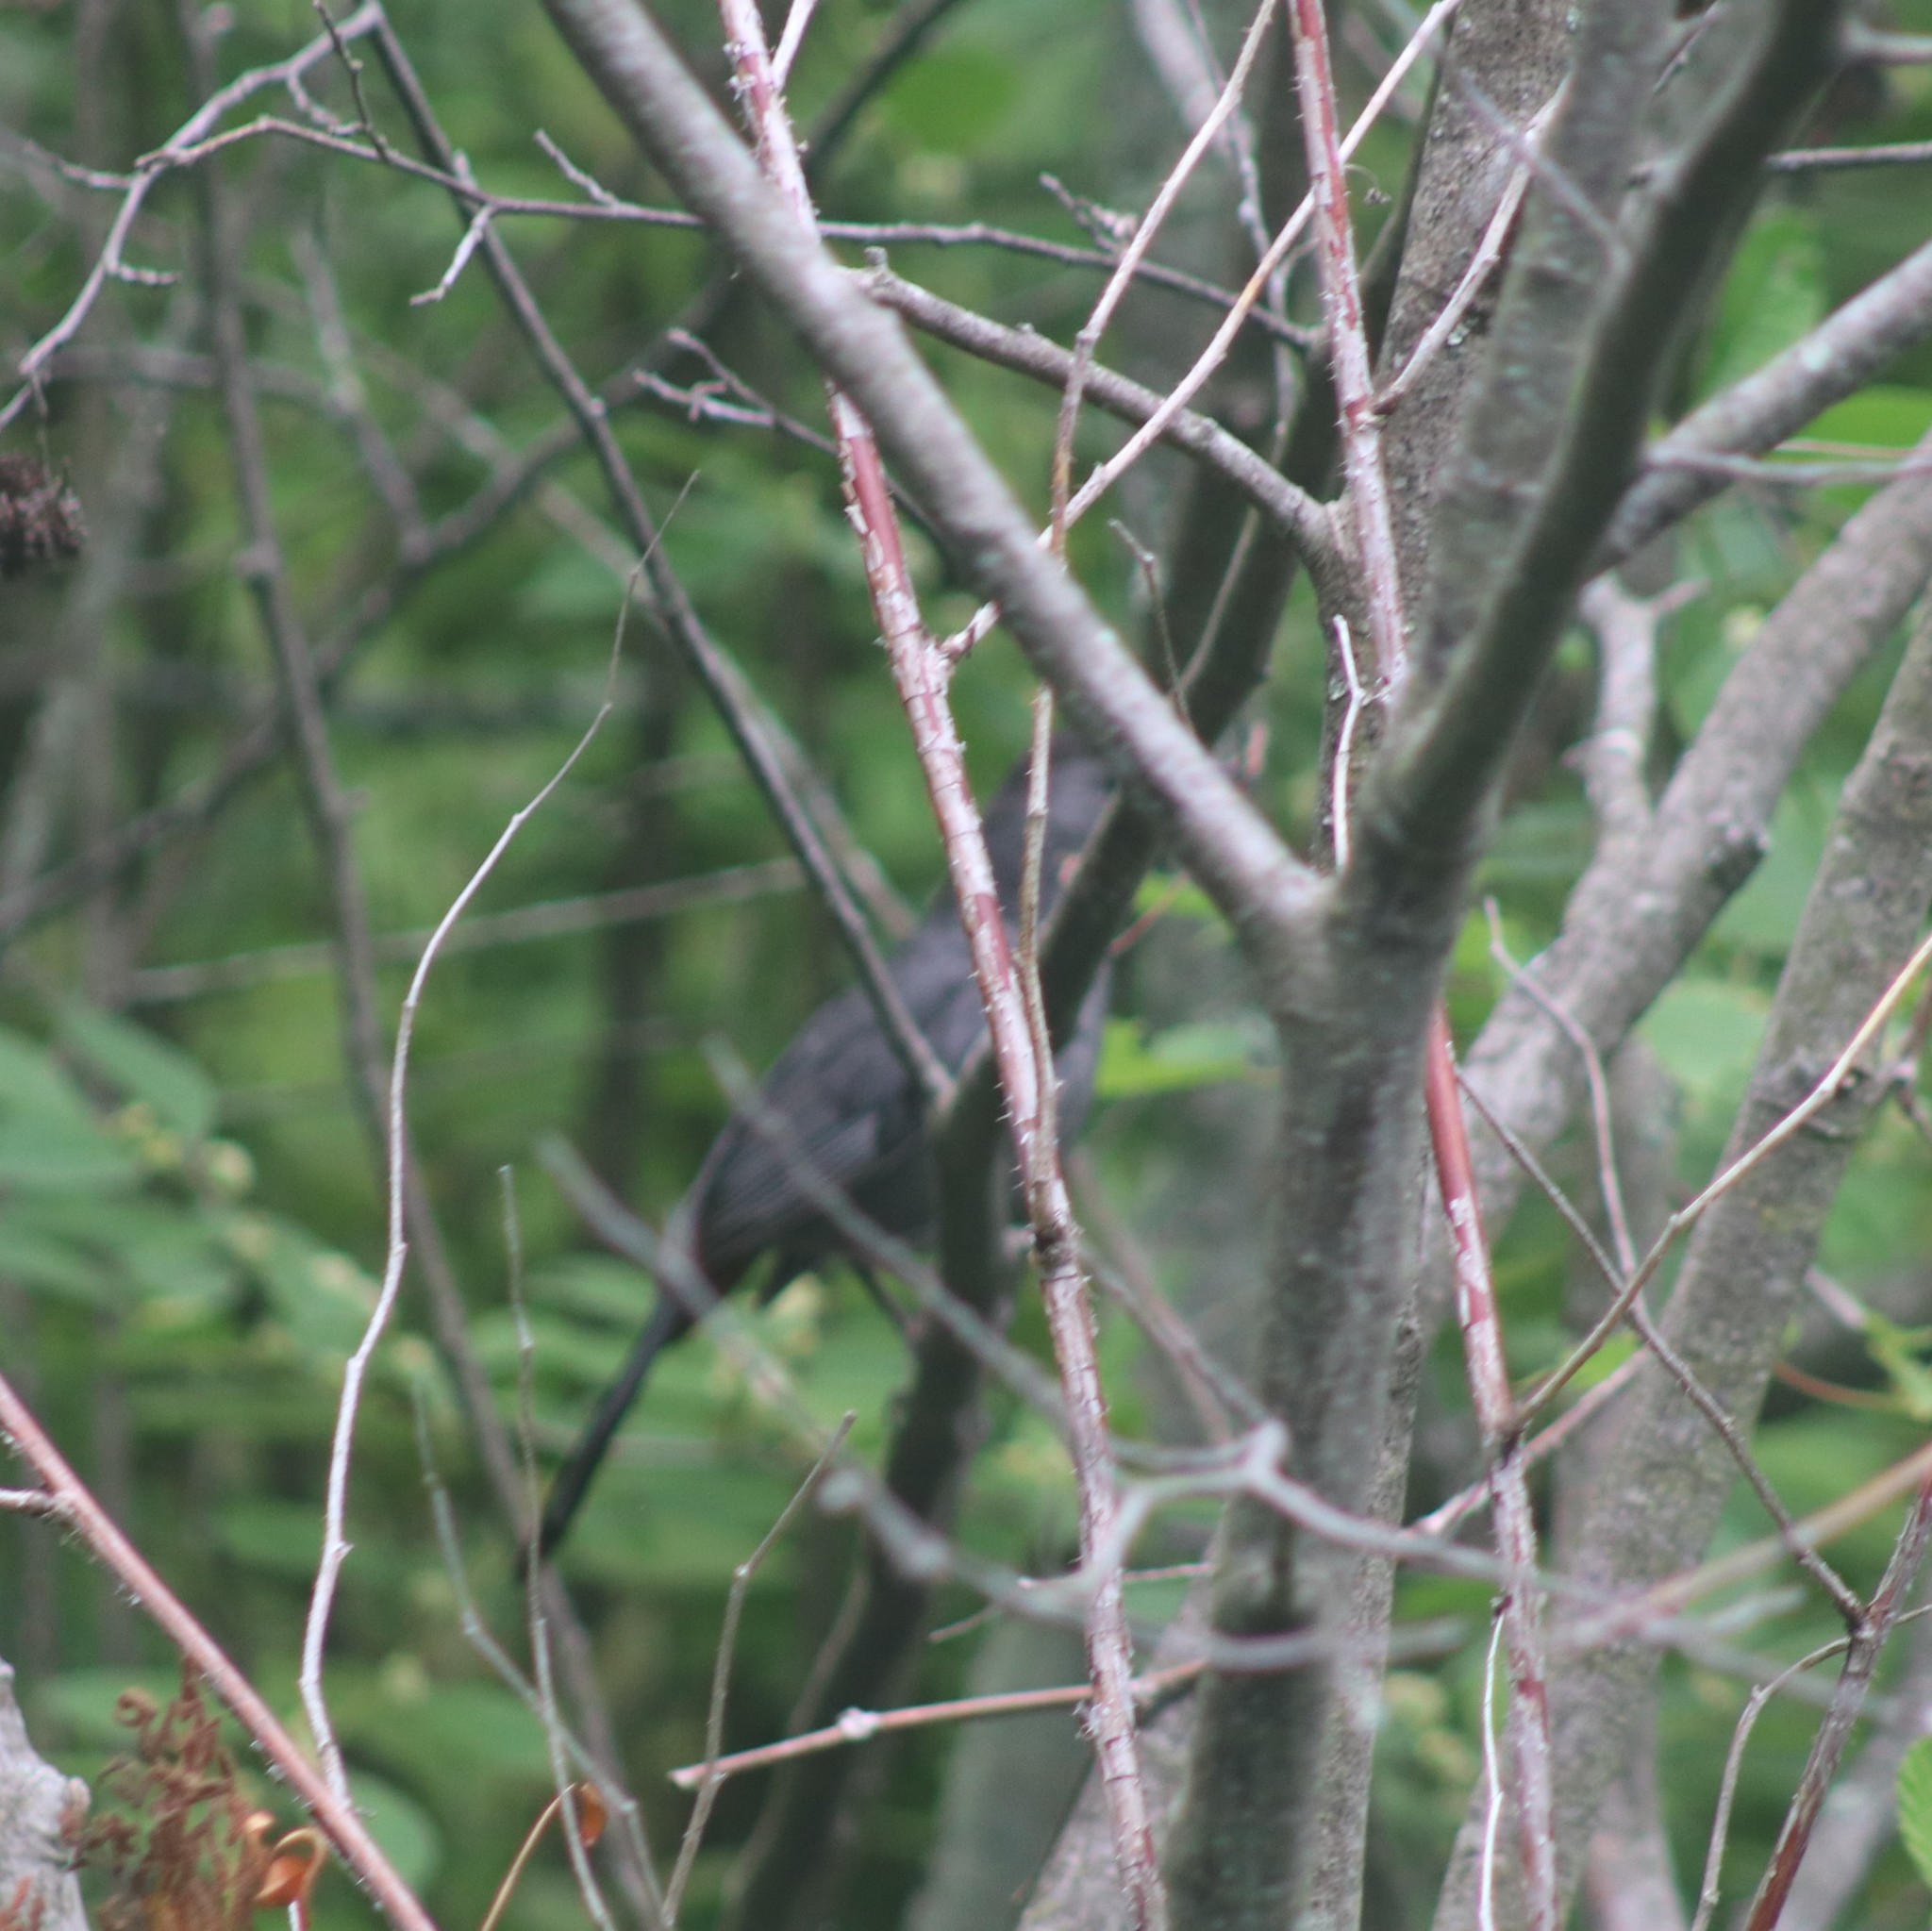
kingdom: Animalia
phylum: Chordata
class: Aves
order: Passeriformes
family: Mimidae
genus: Dumetella
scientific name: Dumetella carolinensis
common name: Gray catbird
